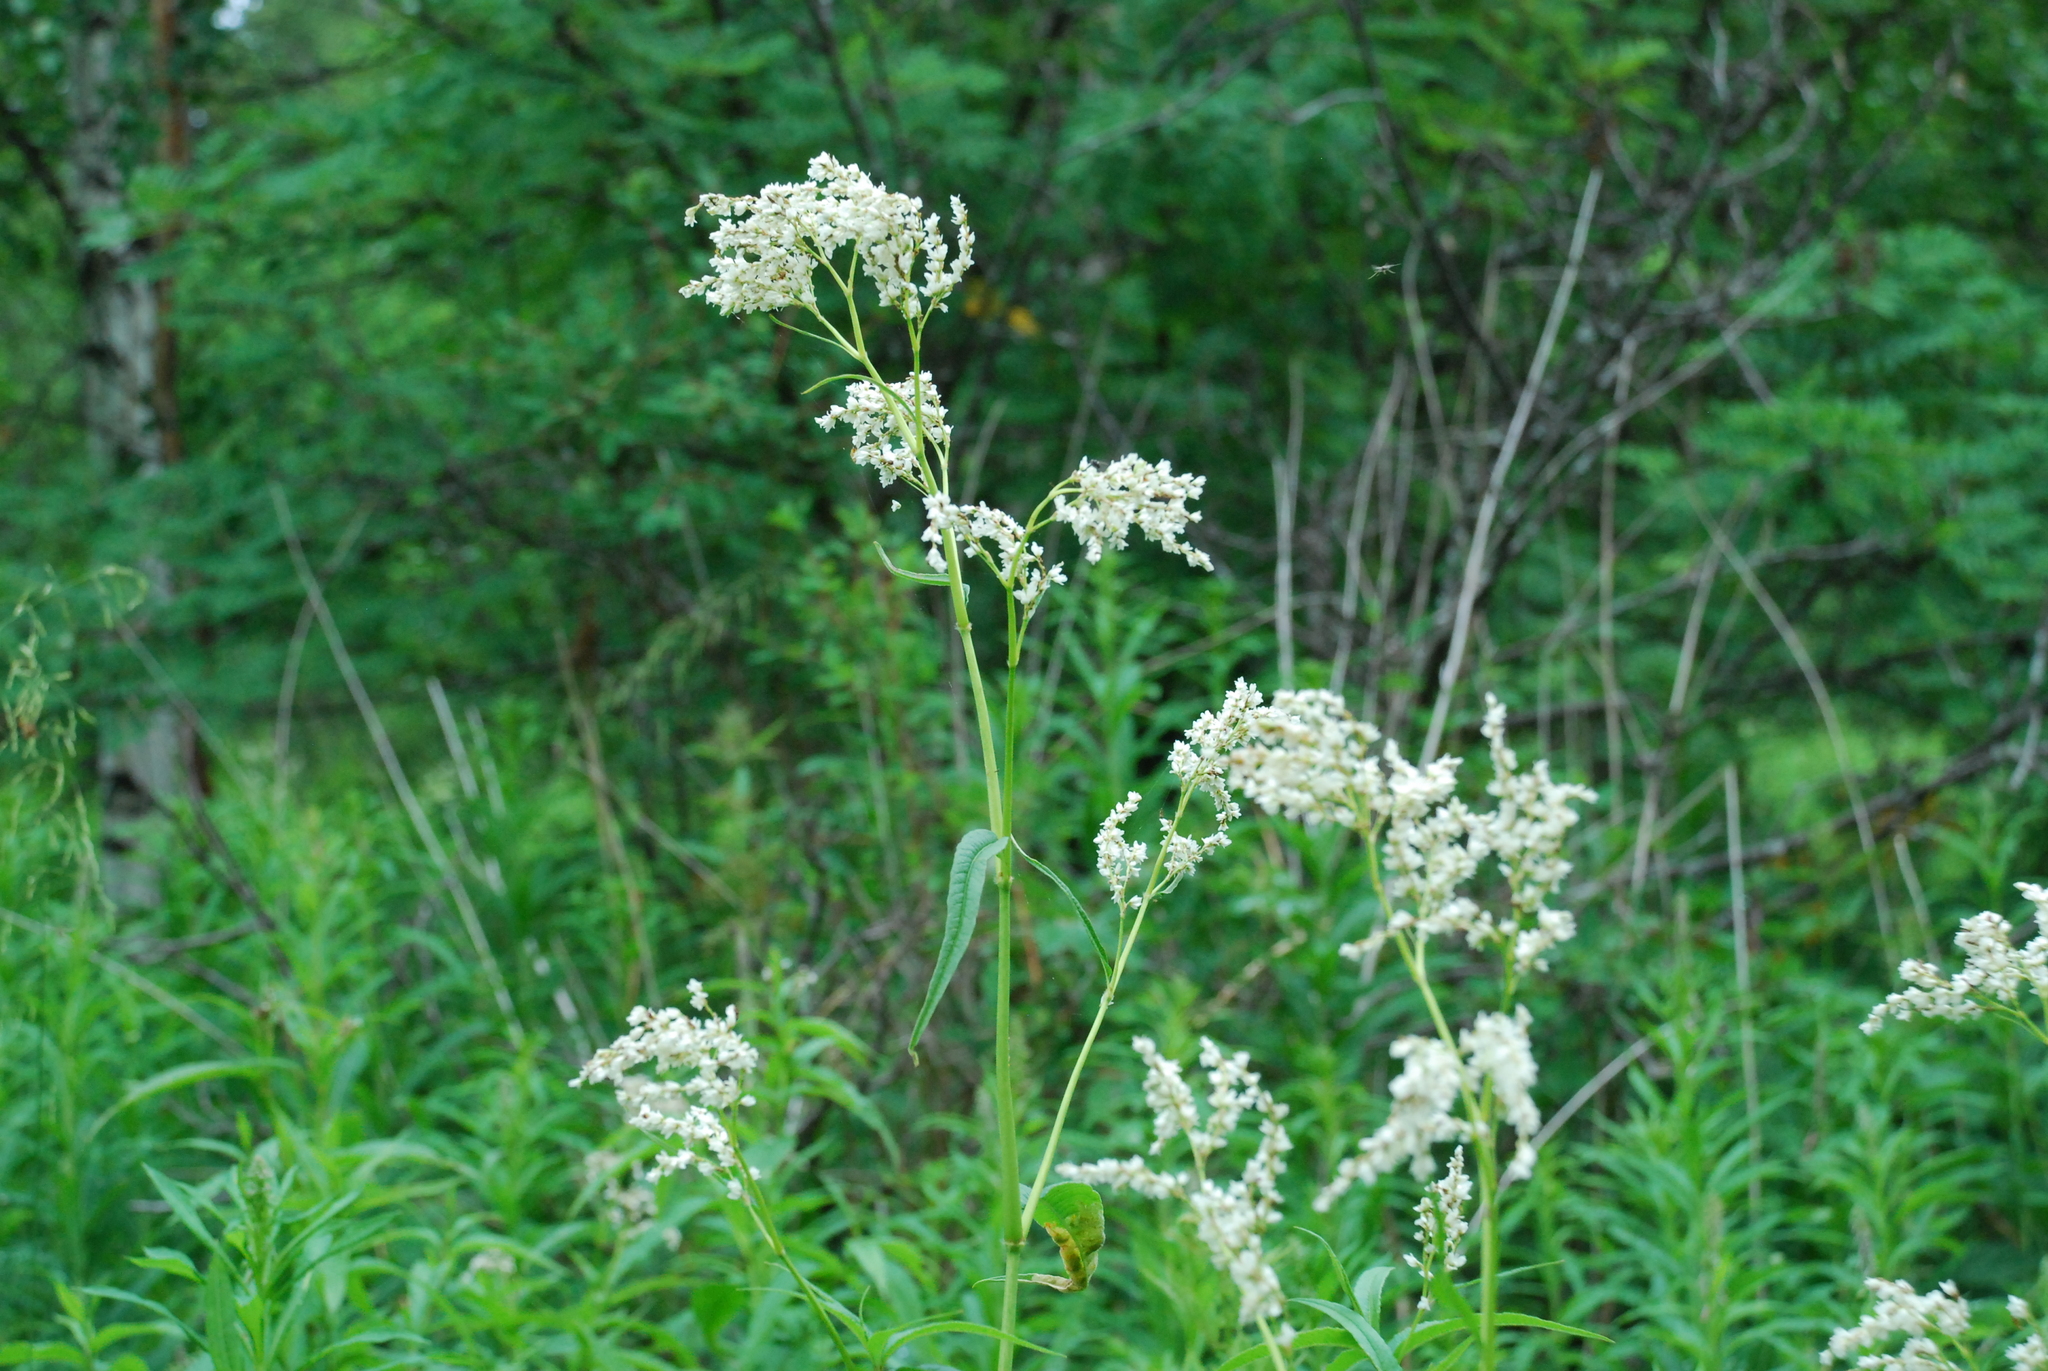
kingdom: Plantae
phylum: Tracheophyta
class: Magnoliopsida
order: Caryophyllales
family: Polygonaceae
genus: Koenigia
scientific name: Koenigia alpina
